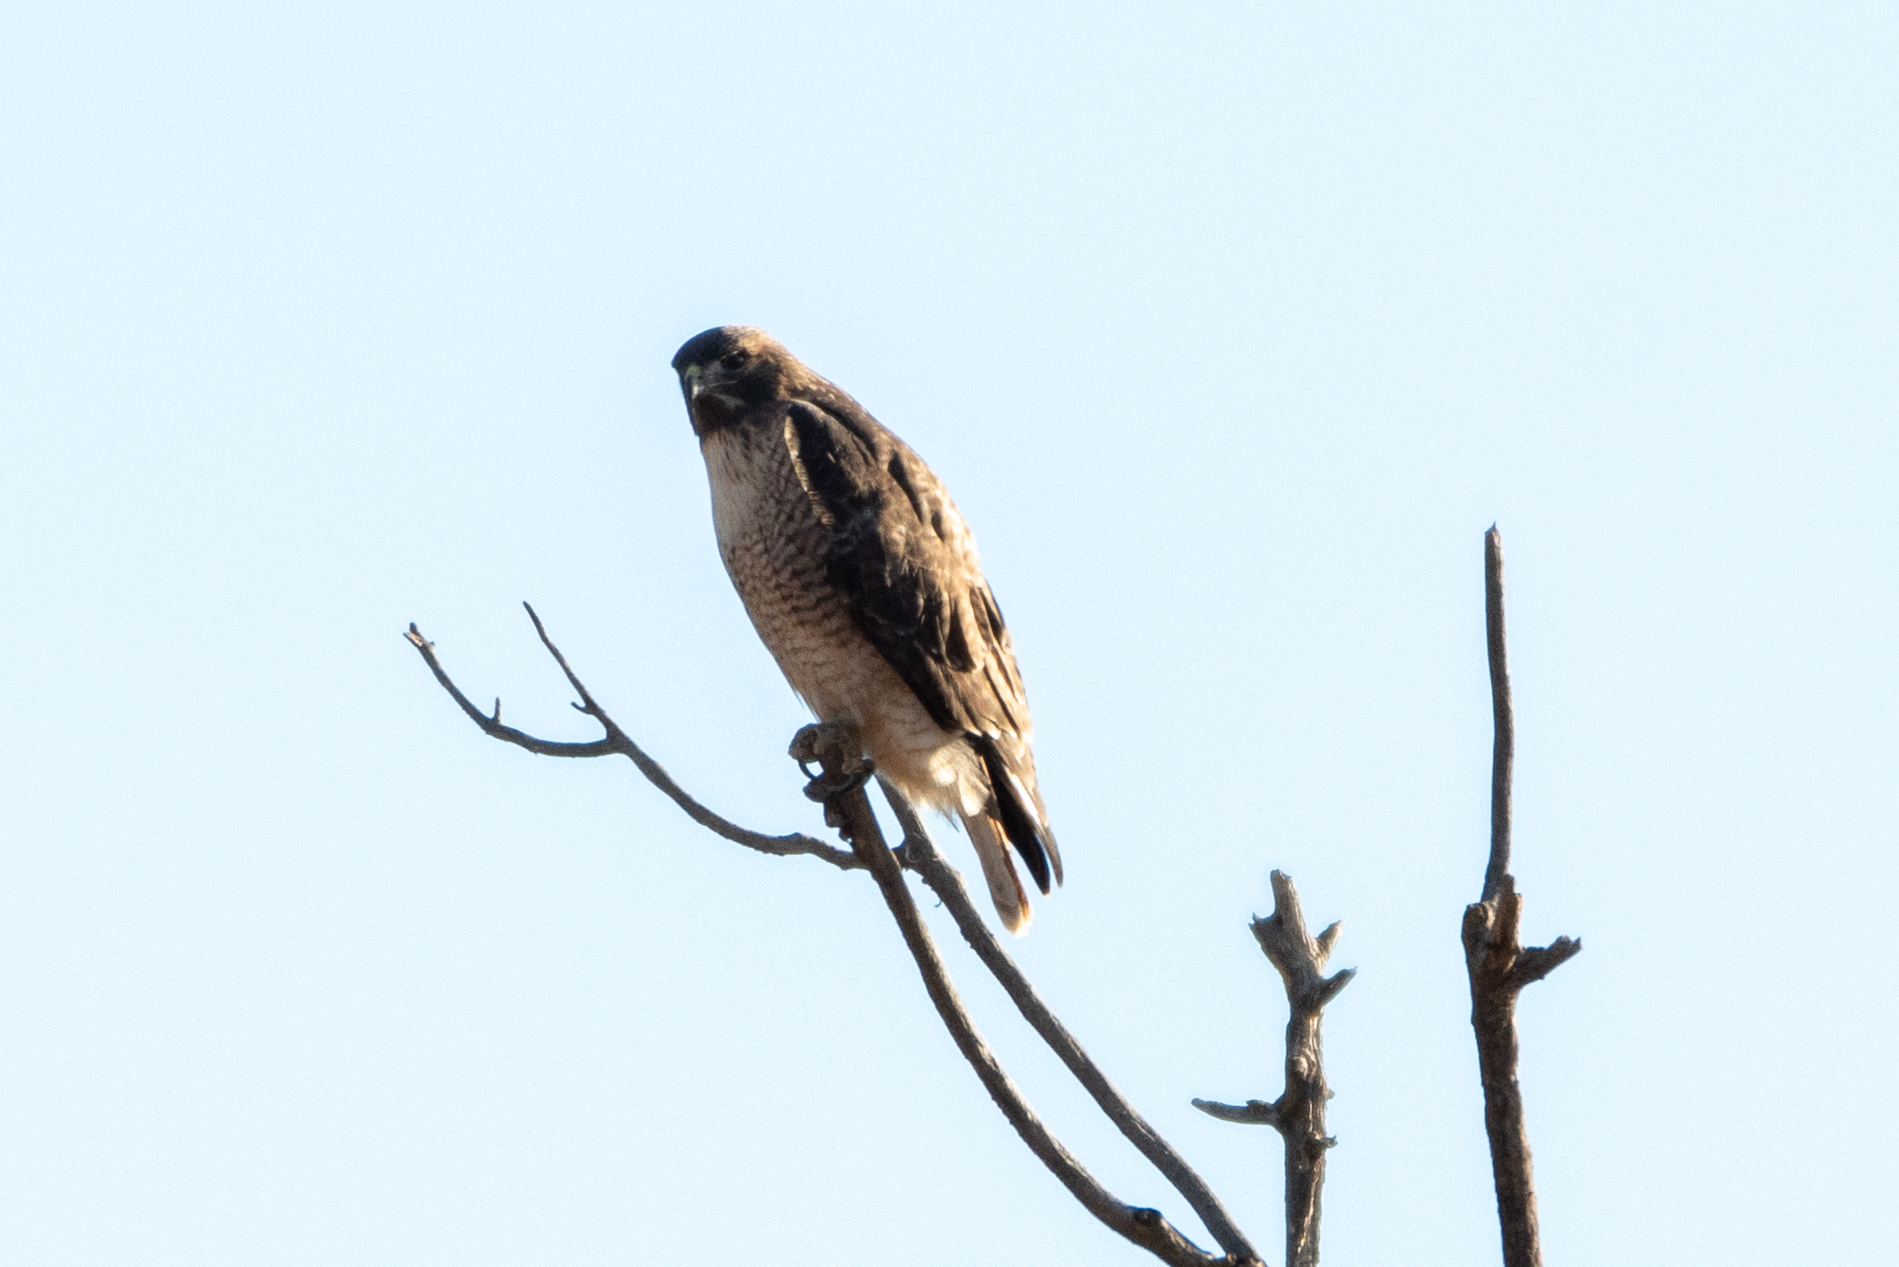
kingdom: Animalia
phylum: Chordata
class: Aves
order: Accipitriformes
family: Accipitridae
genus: Buteo
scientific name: Buteo jamaicensis
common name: Red-tailed hawk
